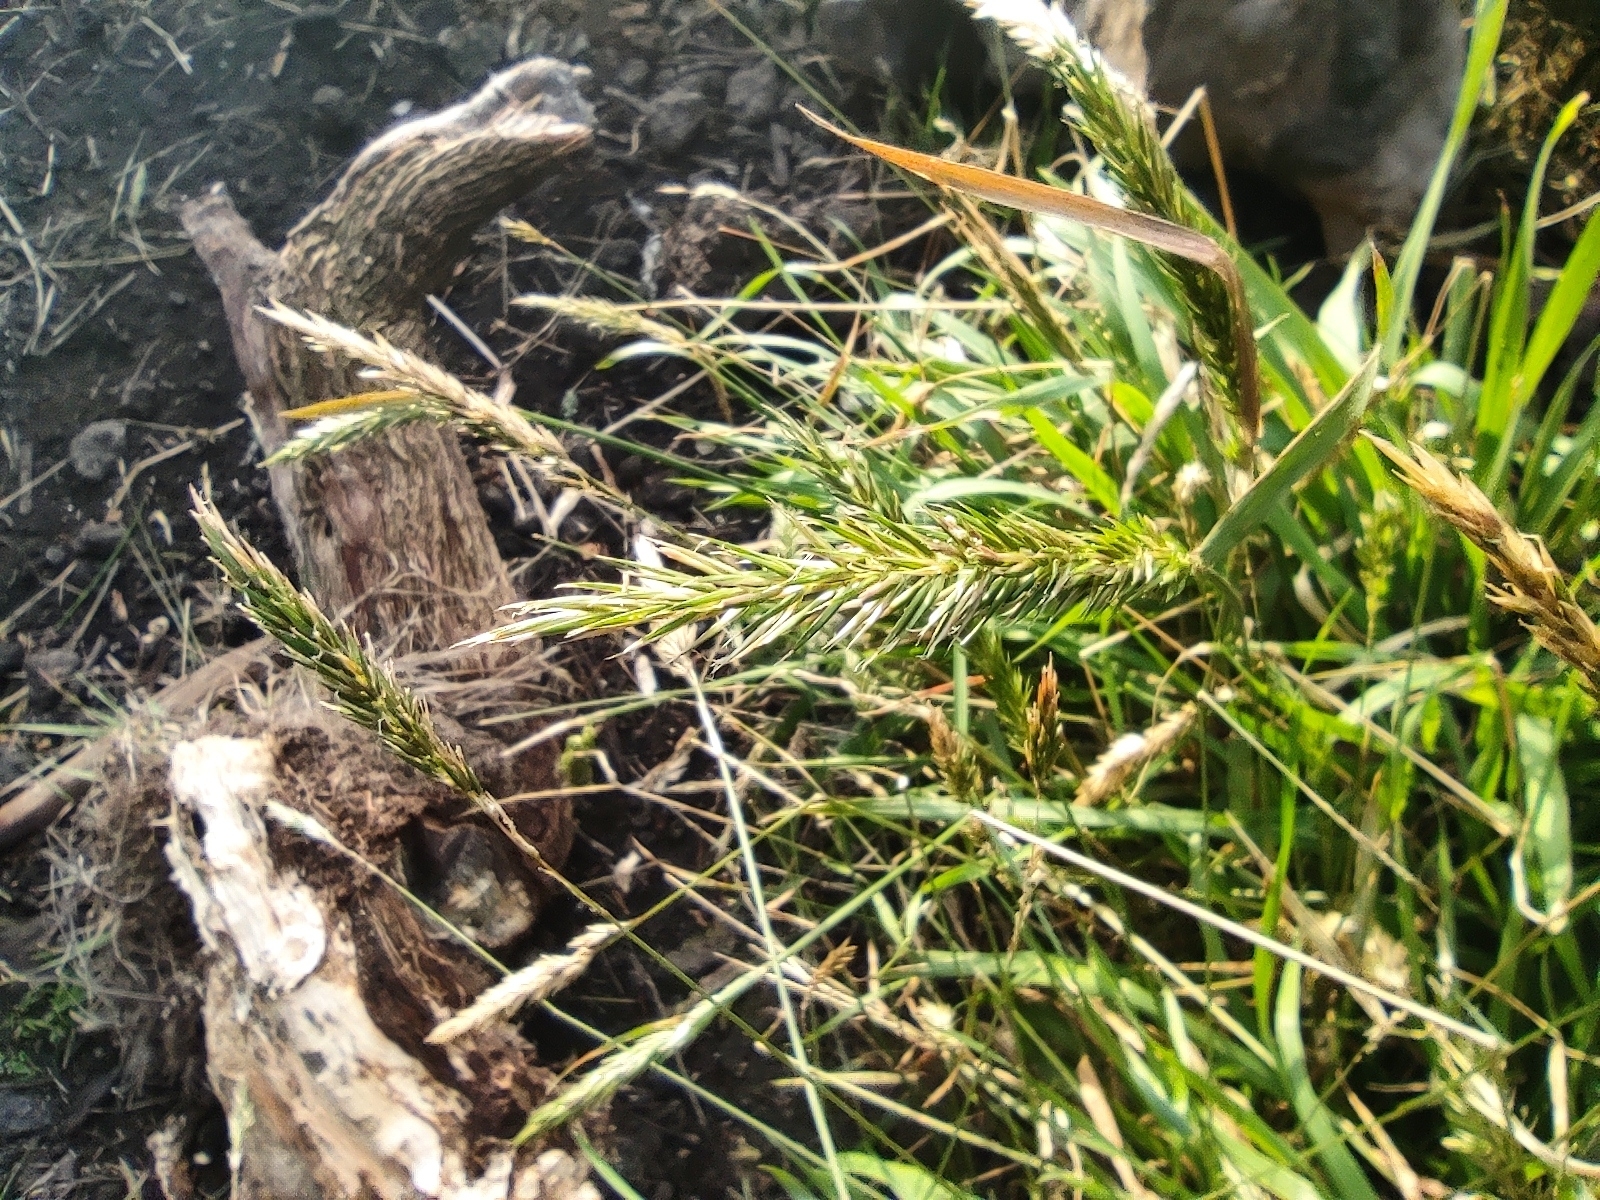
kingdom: Plantae
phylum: Tracheophyta
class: Liliopsida
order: Poales
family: Poaceae
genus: Anthoxanthum
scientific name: Anthoxanthum odoratum
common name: Sweet vernalgrass
